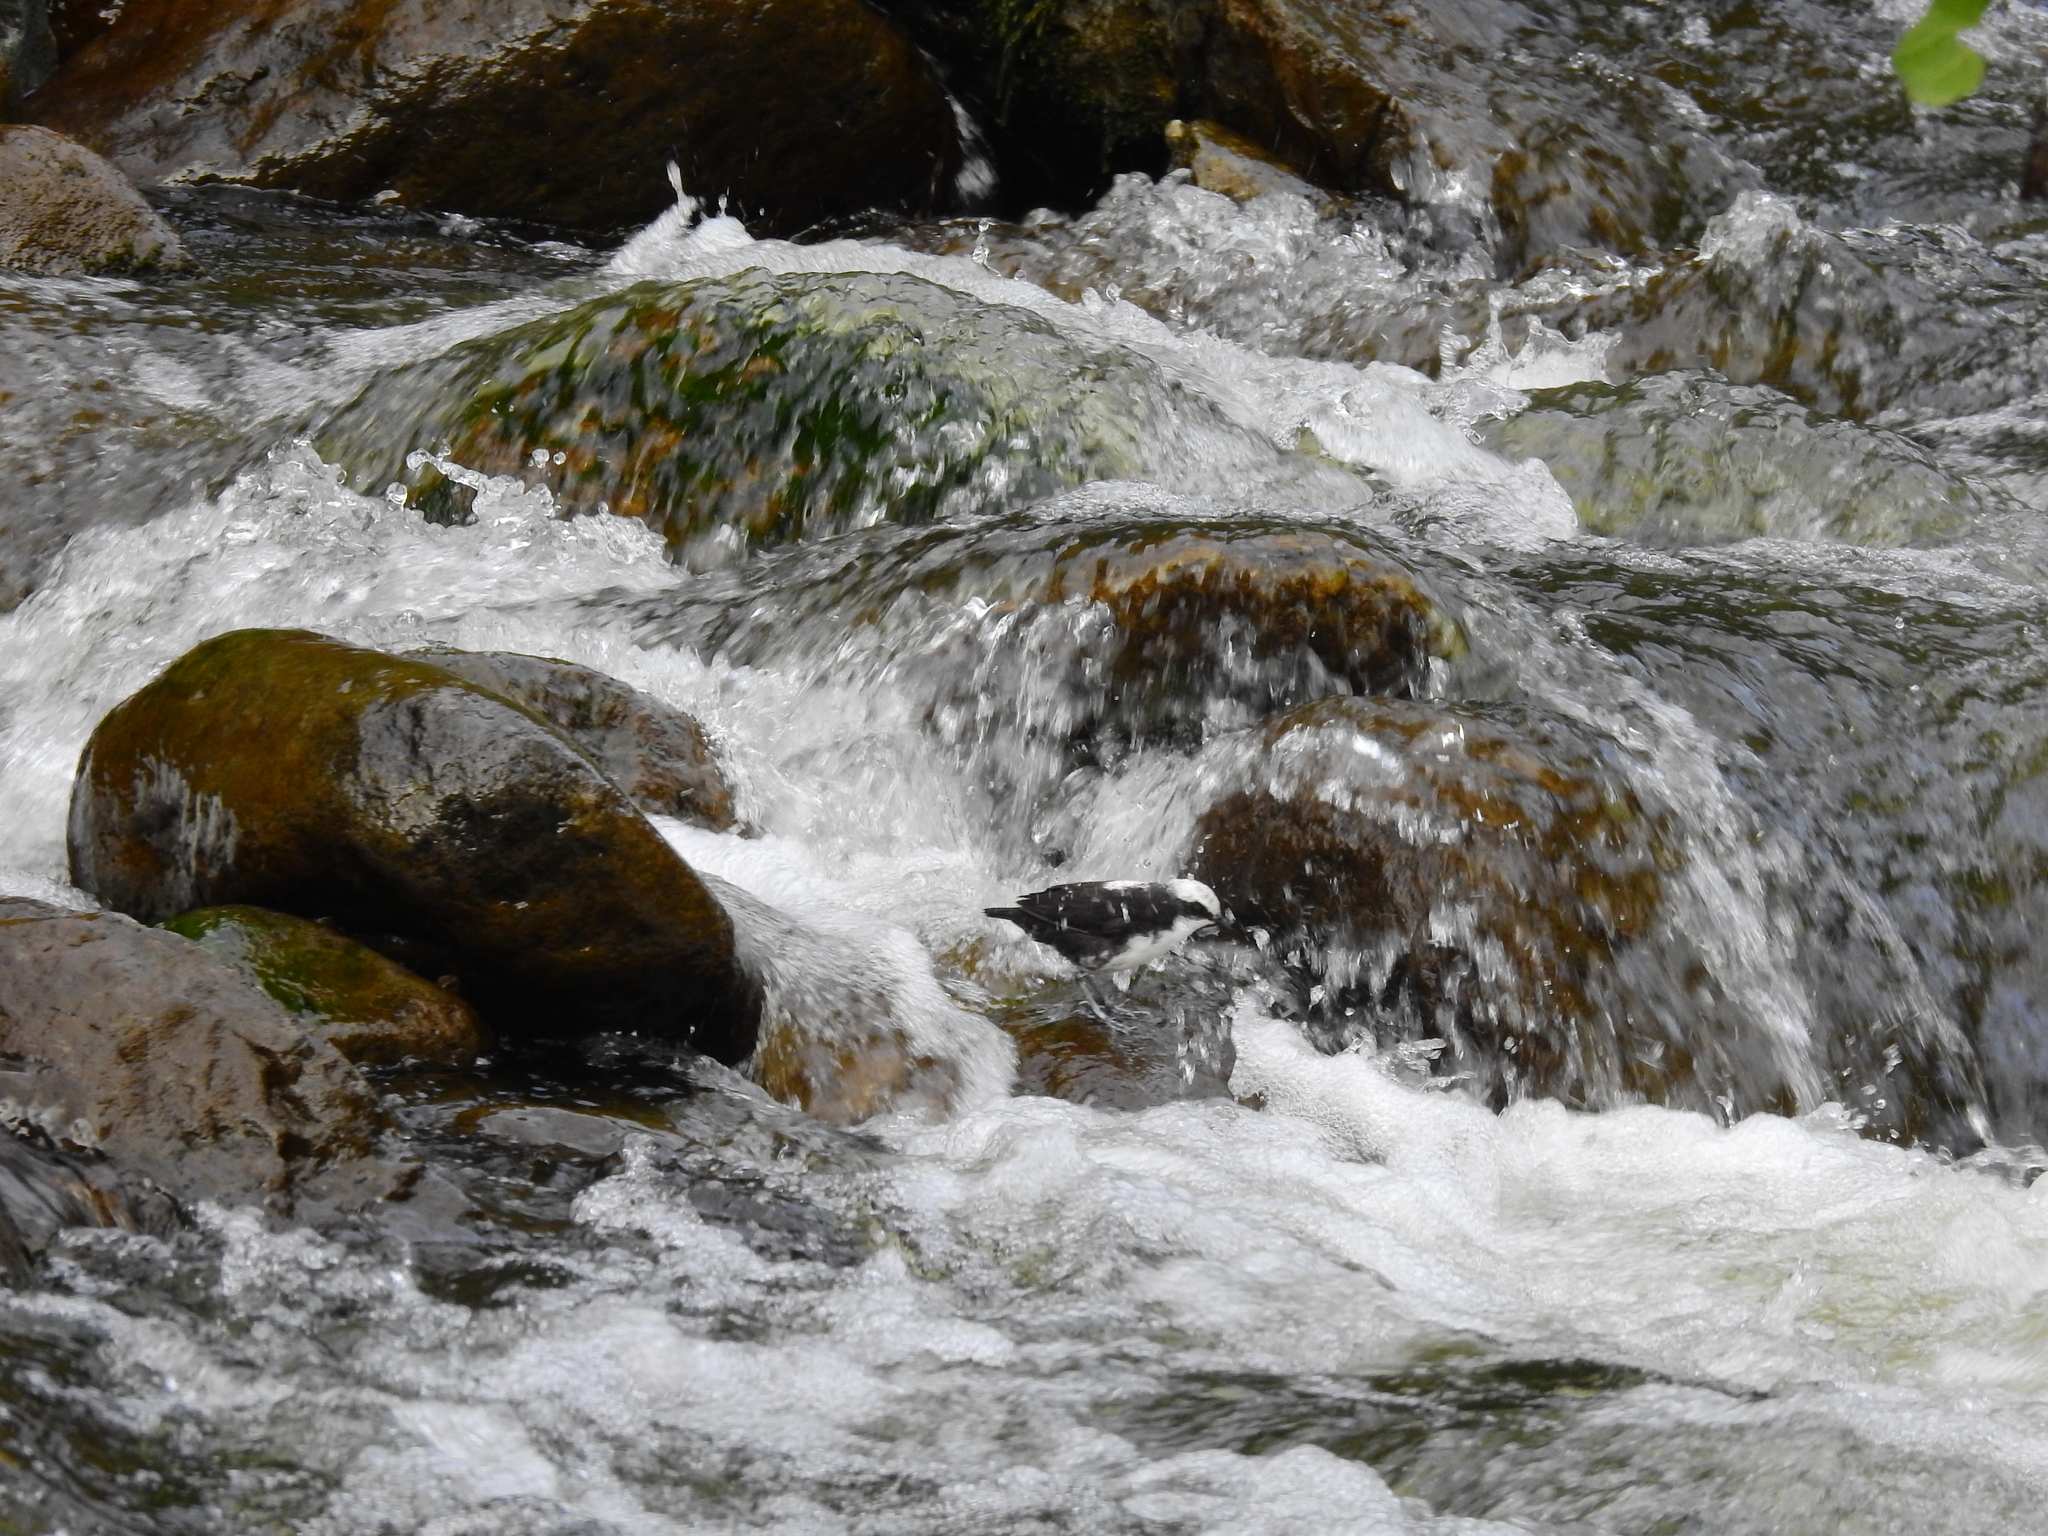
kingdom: Animalia
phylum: Chordata
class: Aves
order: Passeriformes
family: Cinclidae
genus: Cinclus
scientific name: Cinclus leucocephalus
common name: White-capped dipper
